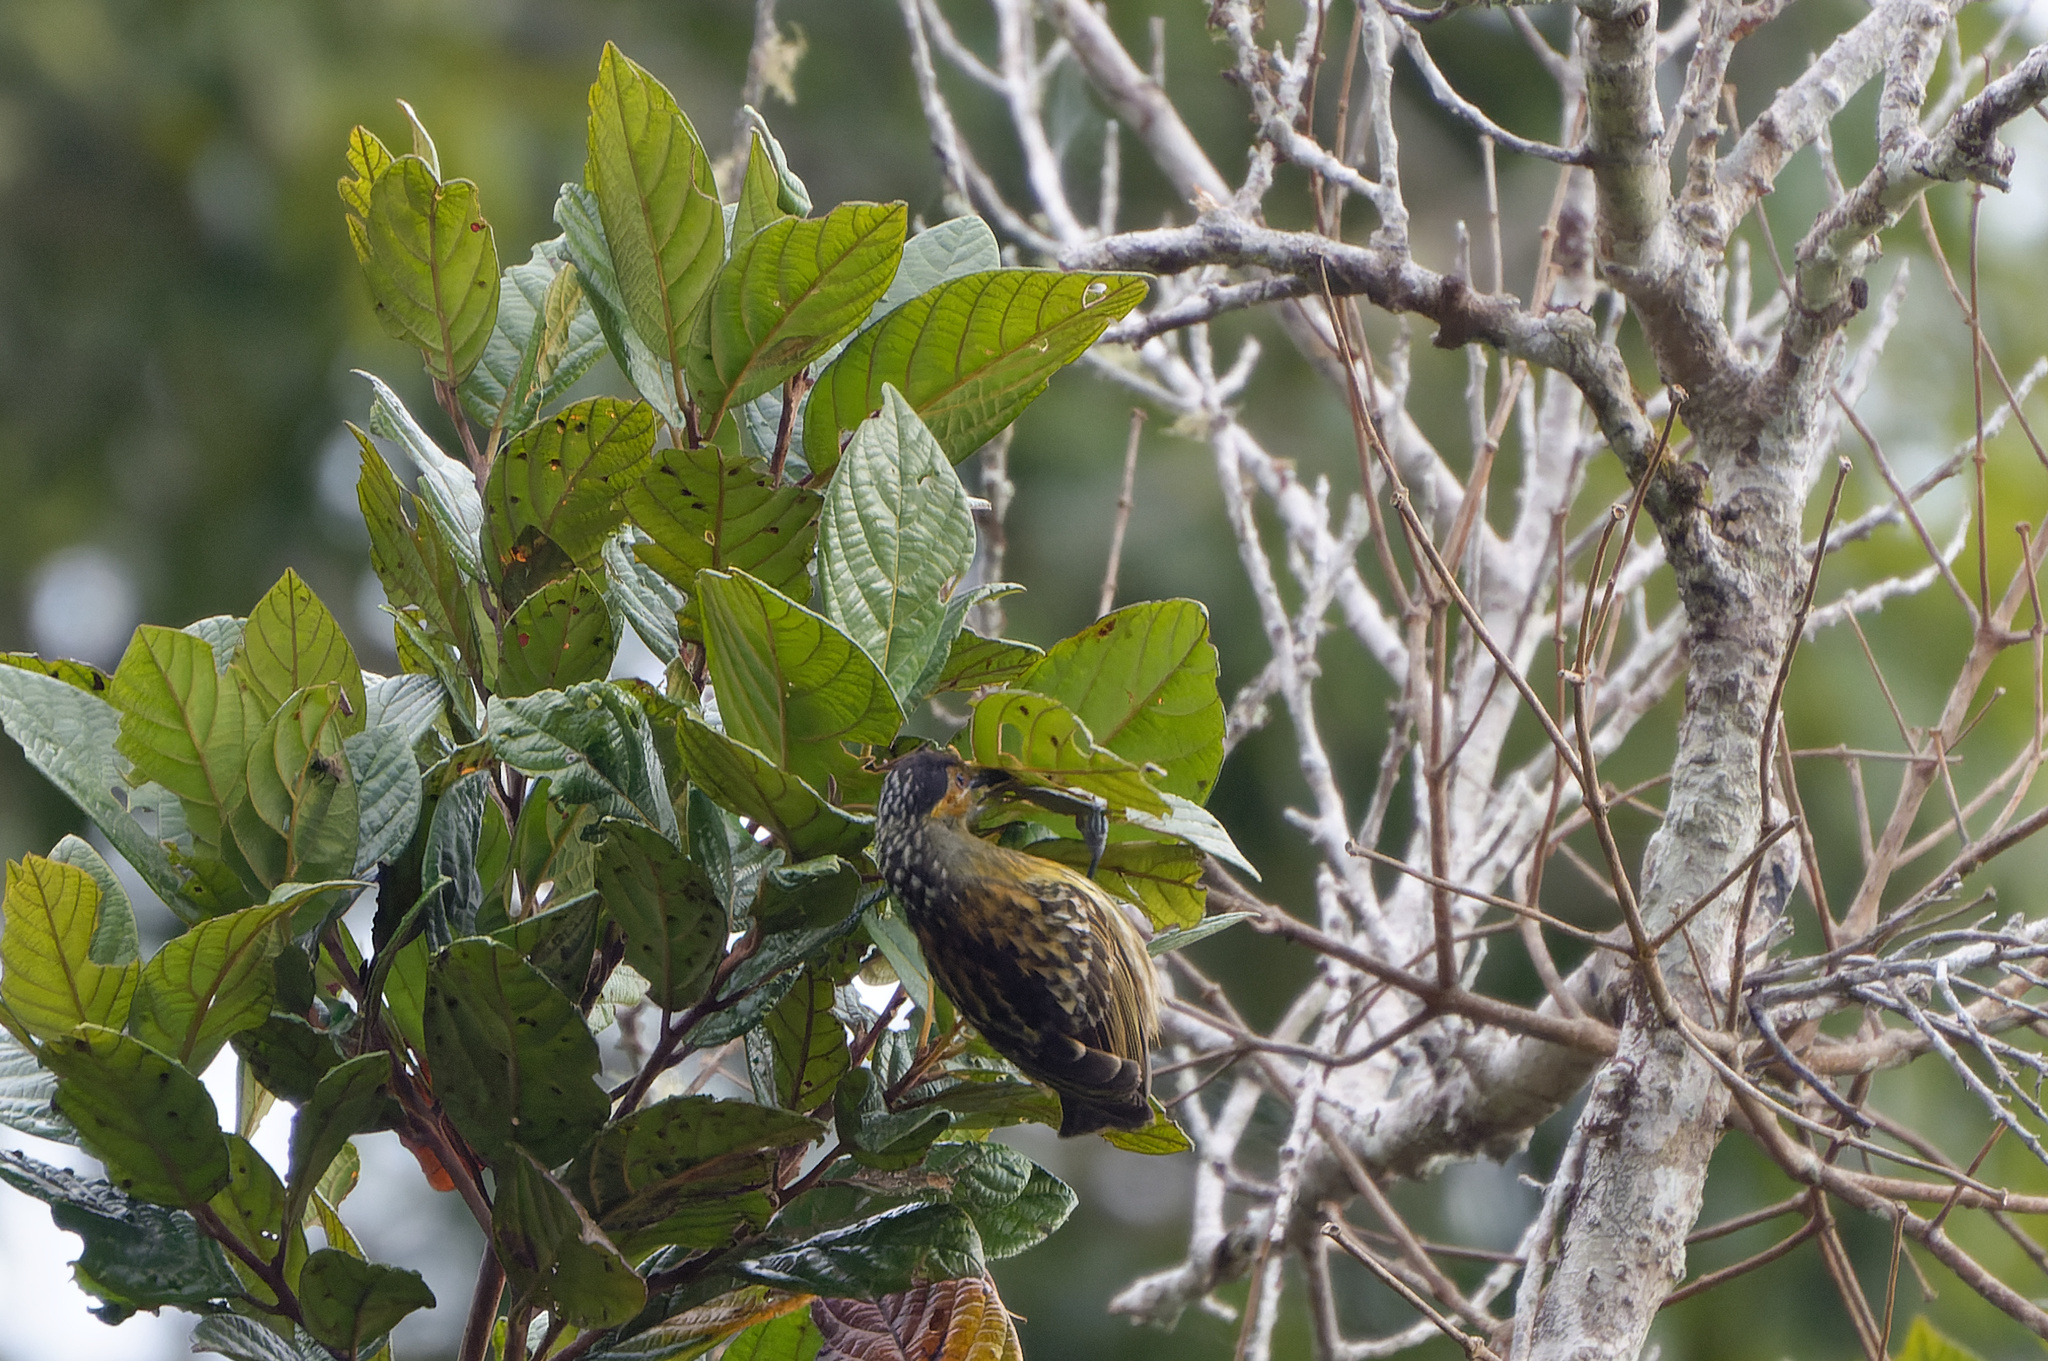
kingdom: Animalia
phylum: Chordata
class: Aves
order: Passeriformes
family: Meliphagidae
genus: Xanthotis
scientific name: Xanthotis macleayanus
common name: Macleay's honeyeater
